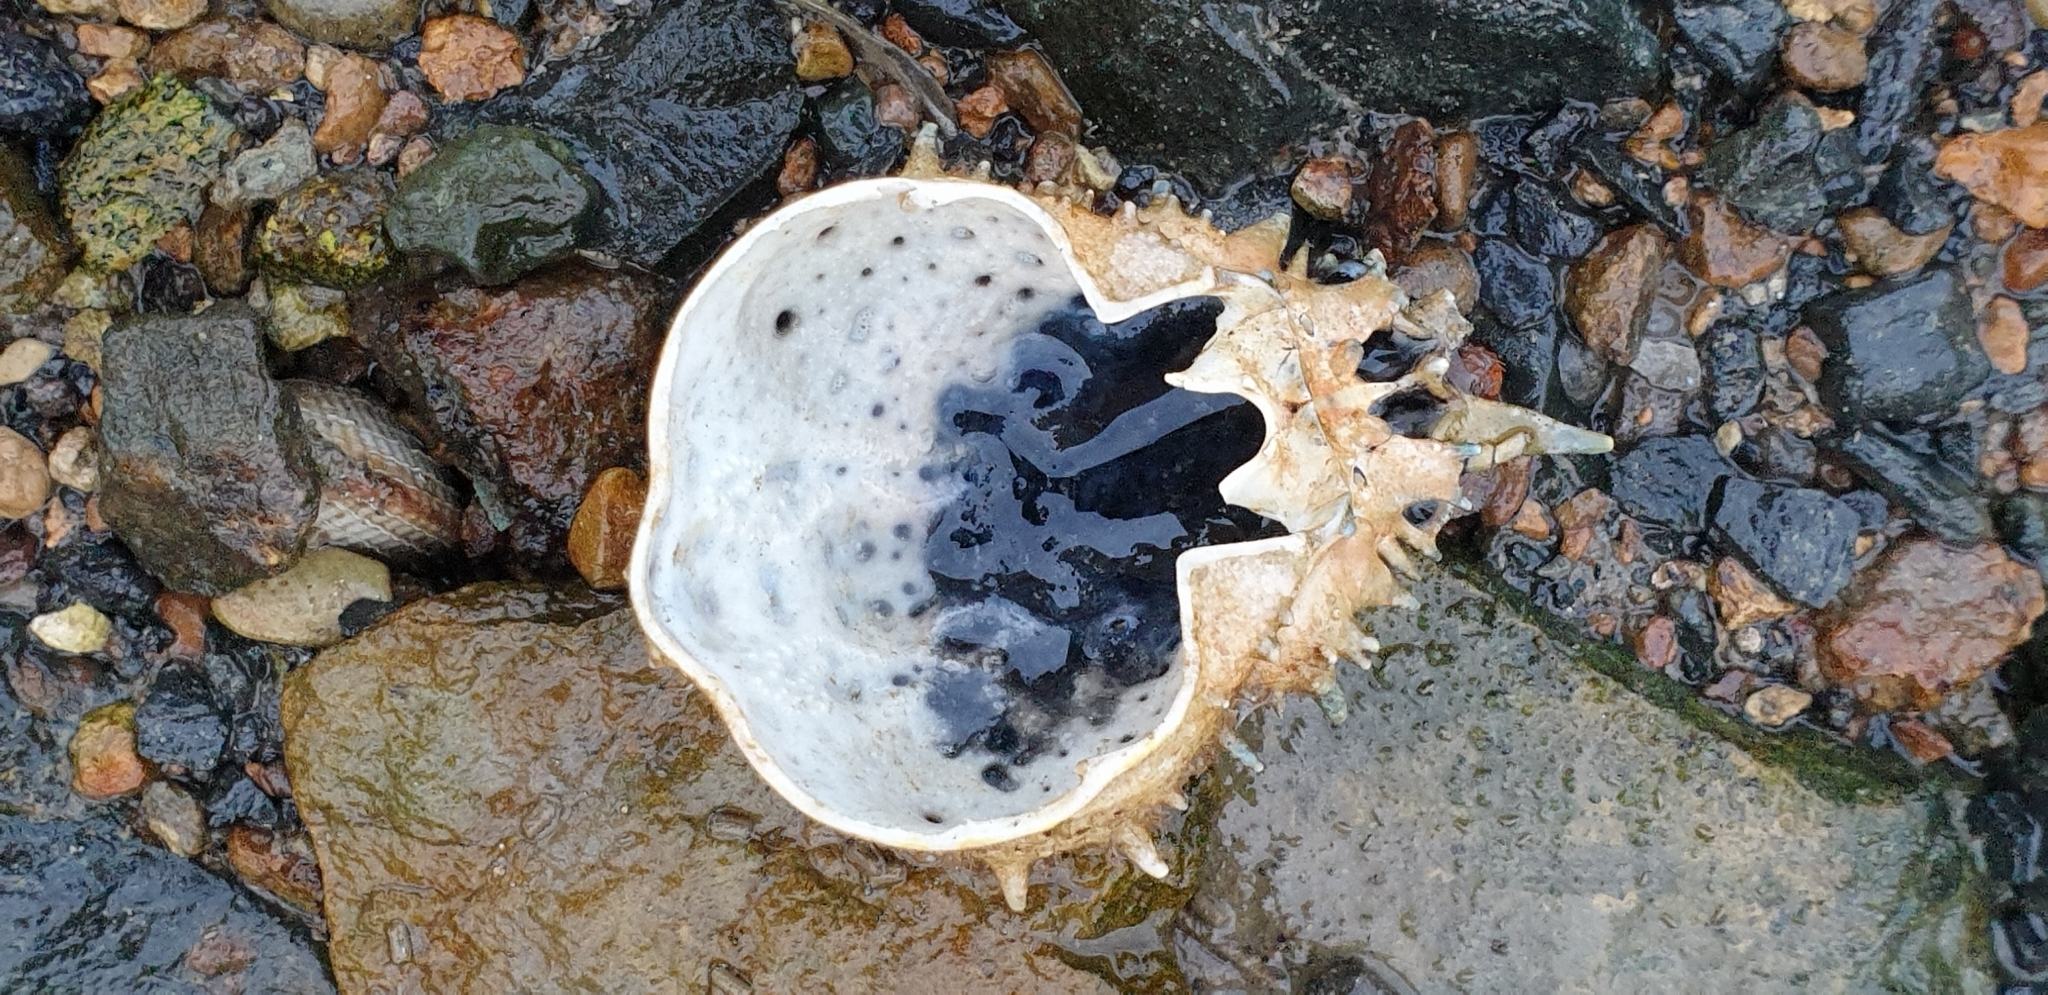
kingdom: Animalia
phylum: Arthropoda
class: Malacostraca
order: Decapoda
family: Majidae
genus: Notomithrax
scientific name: Notomithrax peronii
